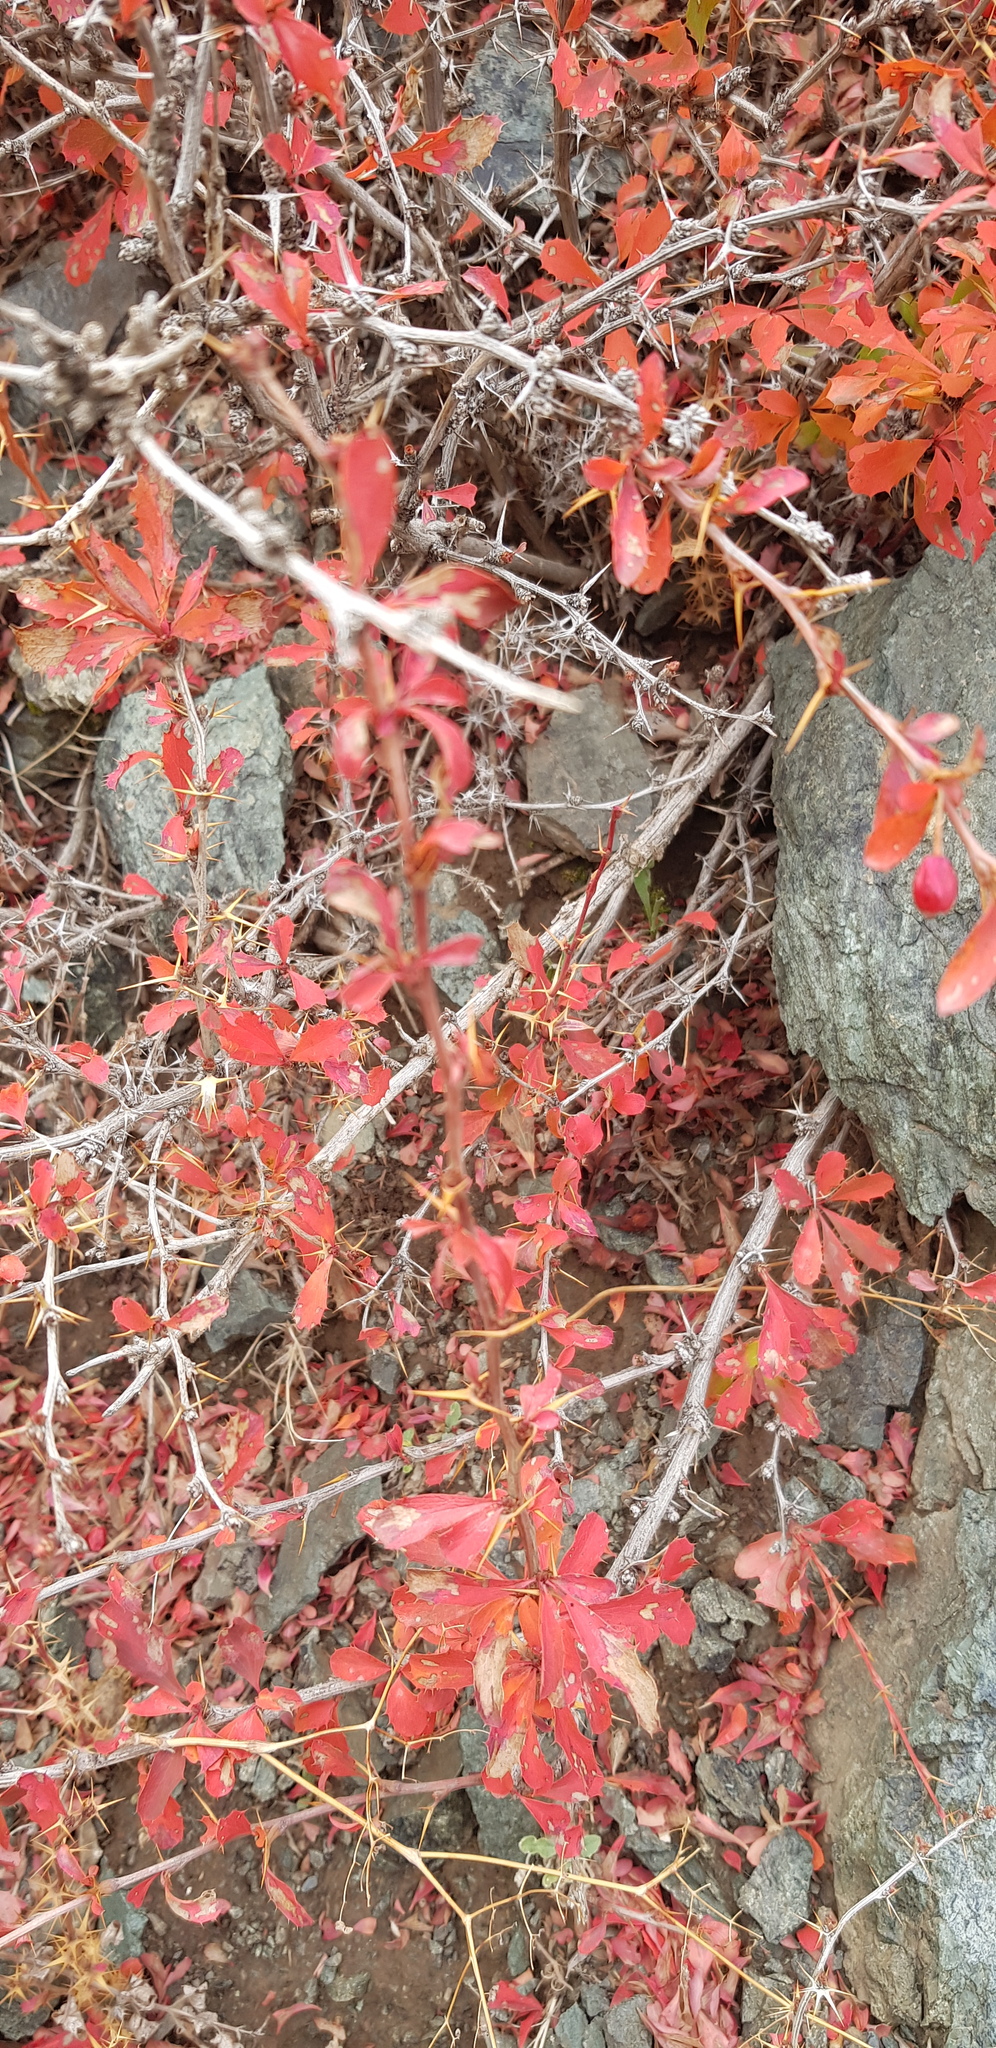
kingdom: Plantae
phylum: Tracheophyta
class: Magnoliopsida
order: Ranunculales
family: Berberidaceae
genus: Berberis
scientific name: Berberis sibirica
